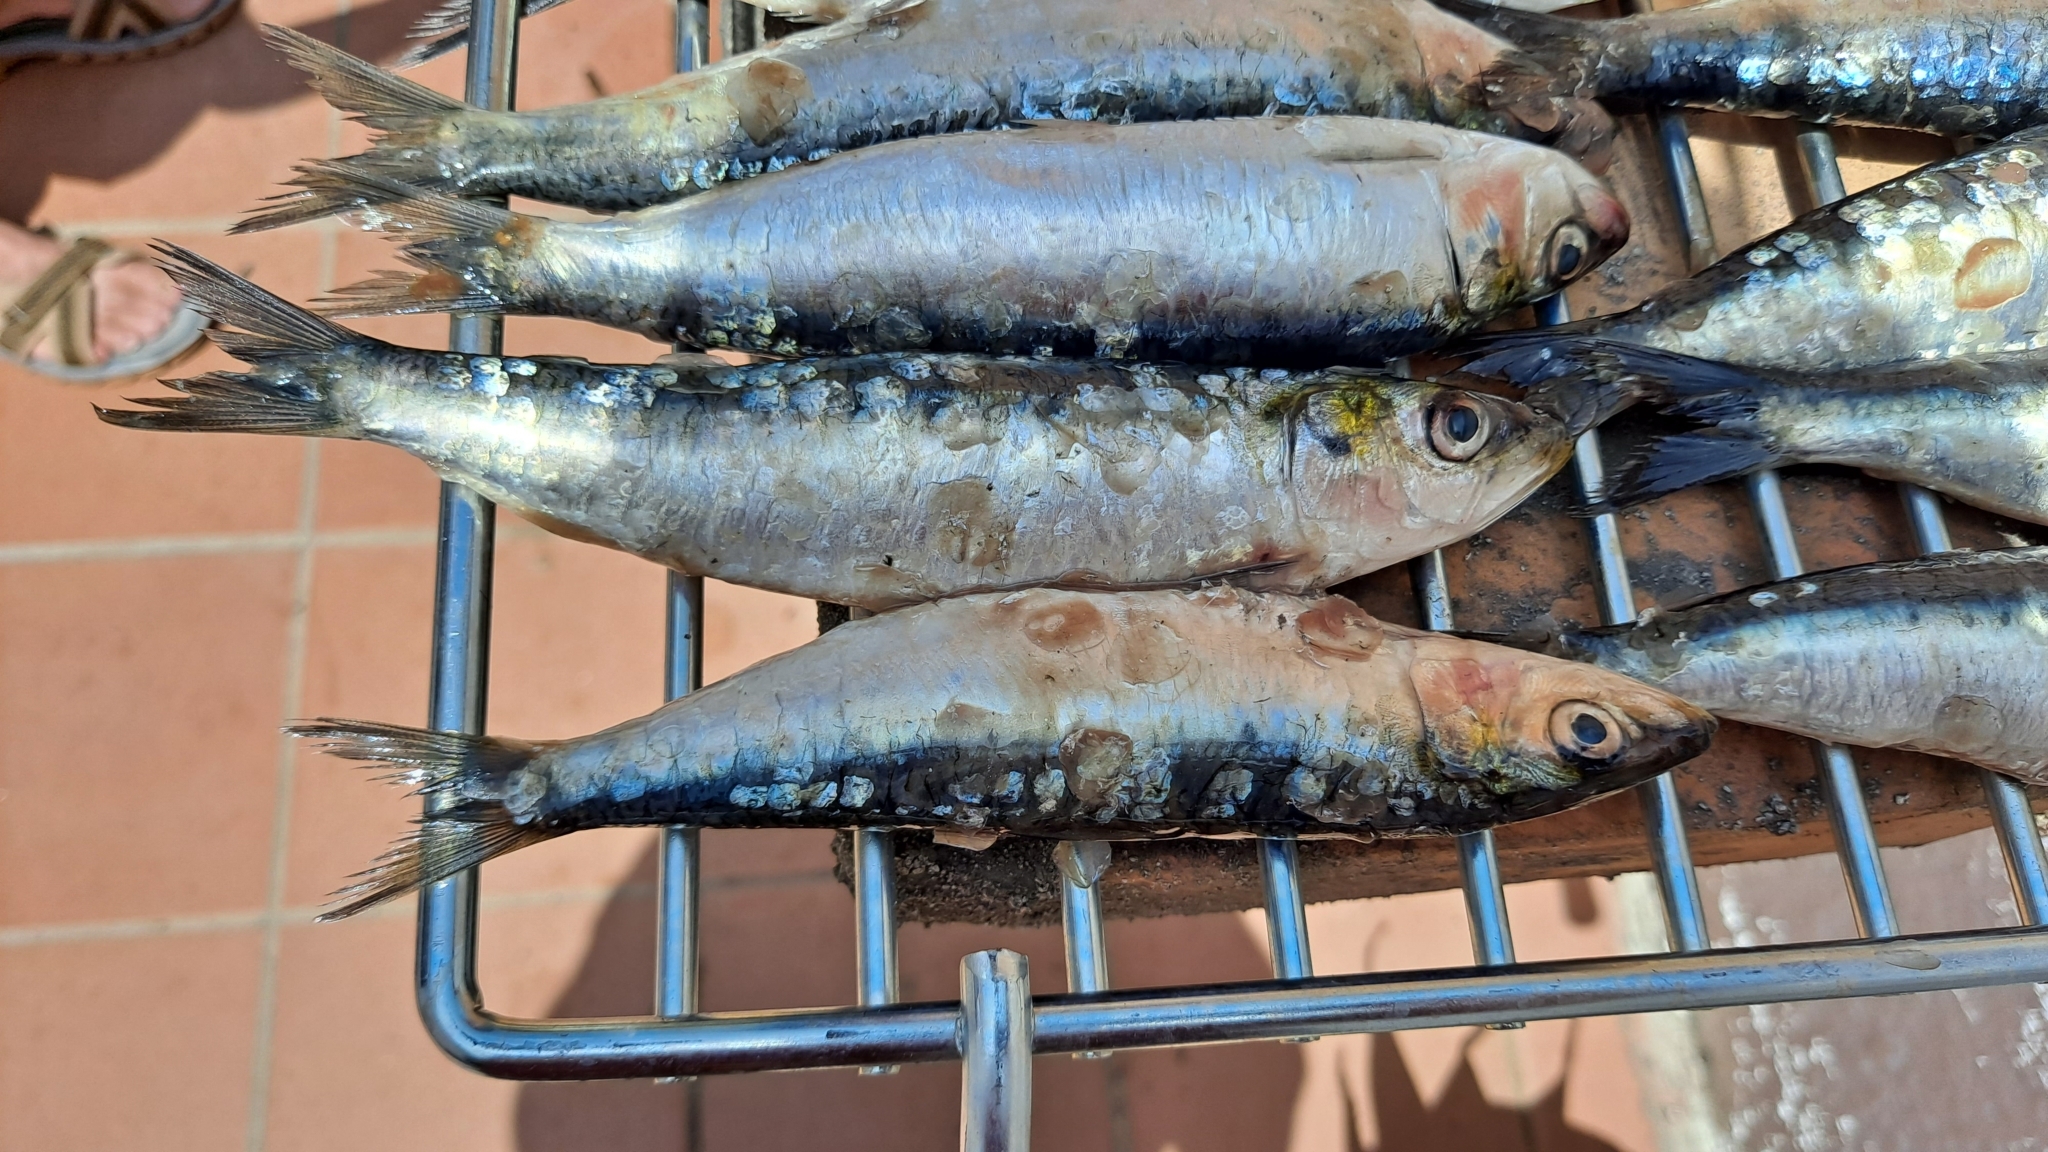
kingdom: Animalia
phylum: Chordata
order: Clupeiformes
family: Clupeidae
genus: Sardina
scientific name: Sardina pilchardus
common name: Pilchard
